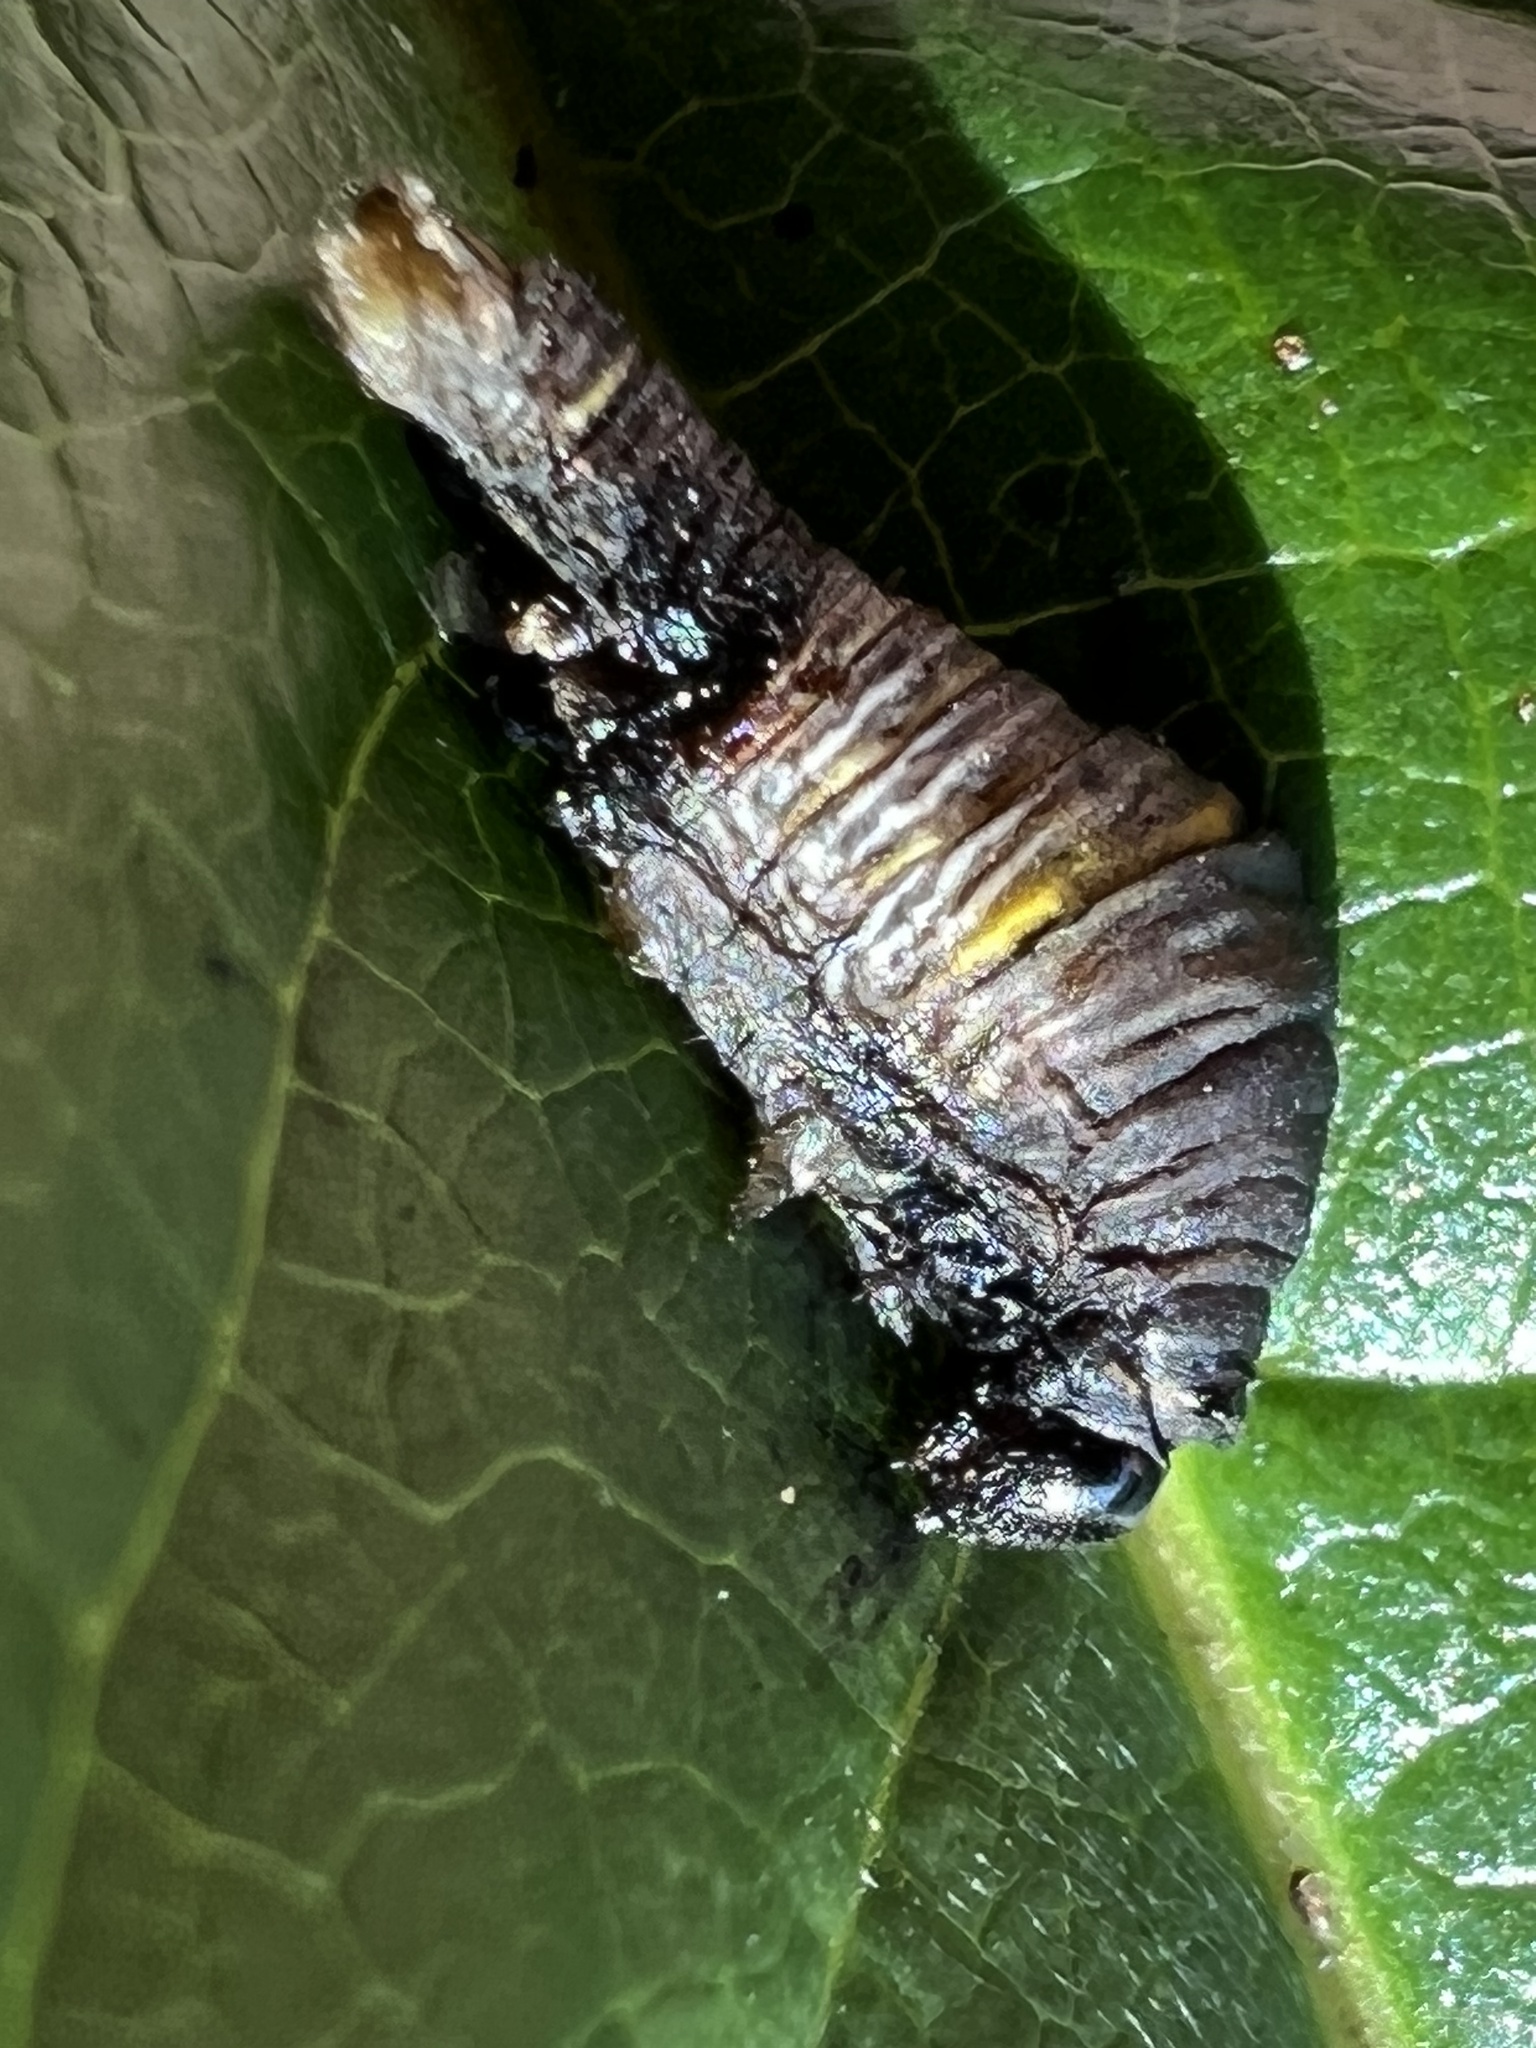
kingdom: Animalia
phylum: Arthropoda
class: Insecta
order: Lepidoptera
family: Papilionidae
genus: Protographium
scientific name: Protographium marcellus
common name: Zebra swallowtail
